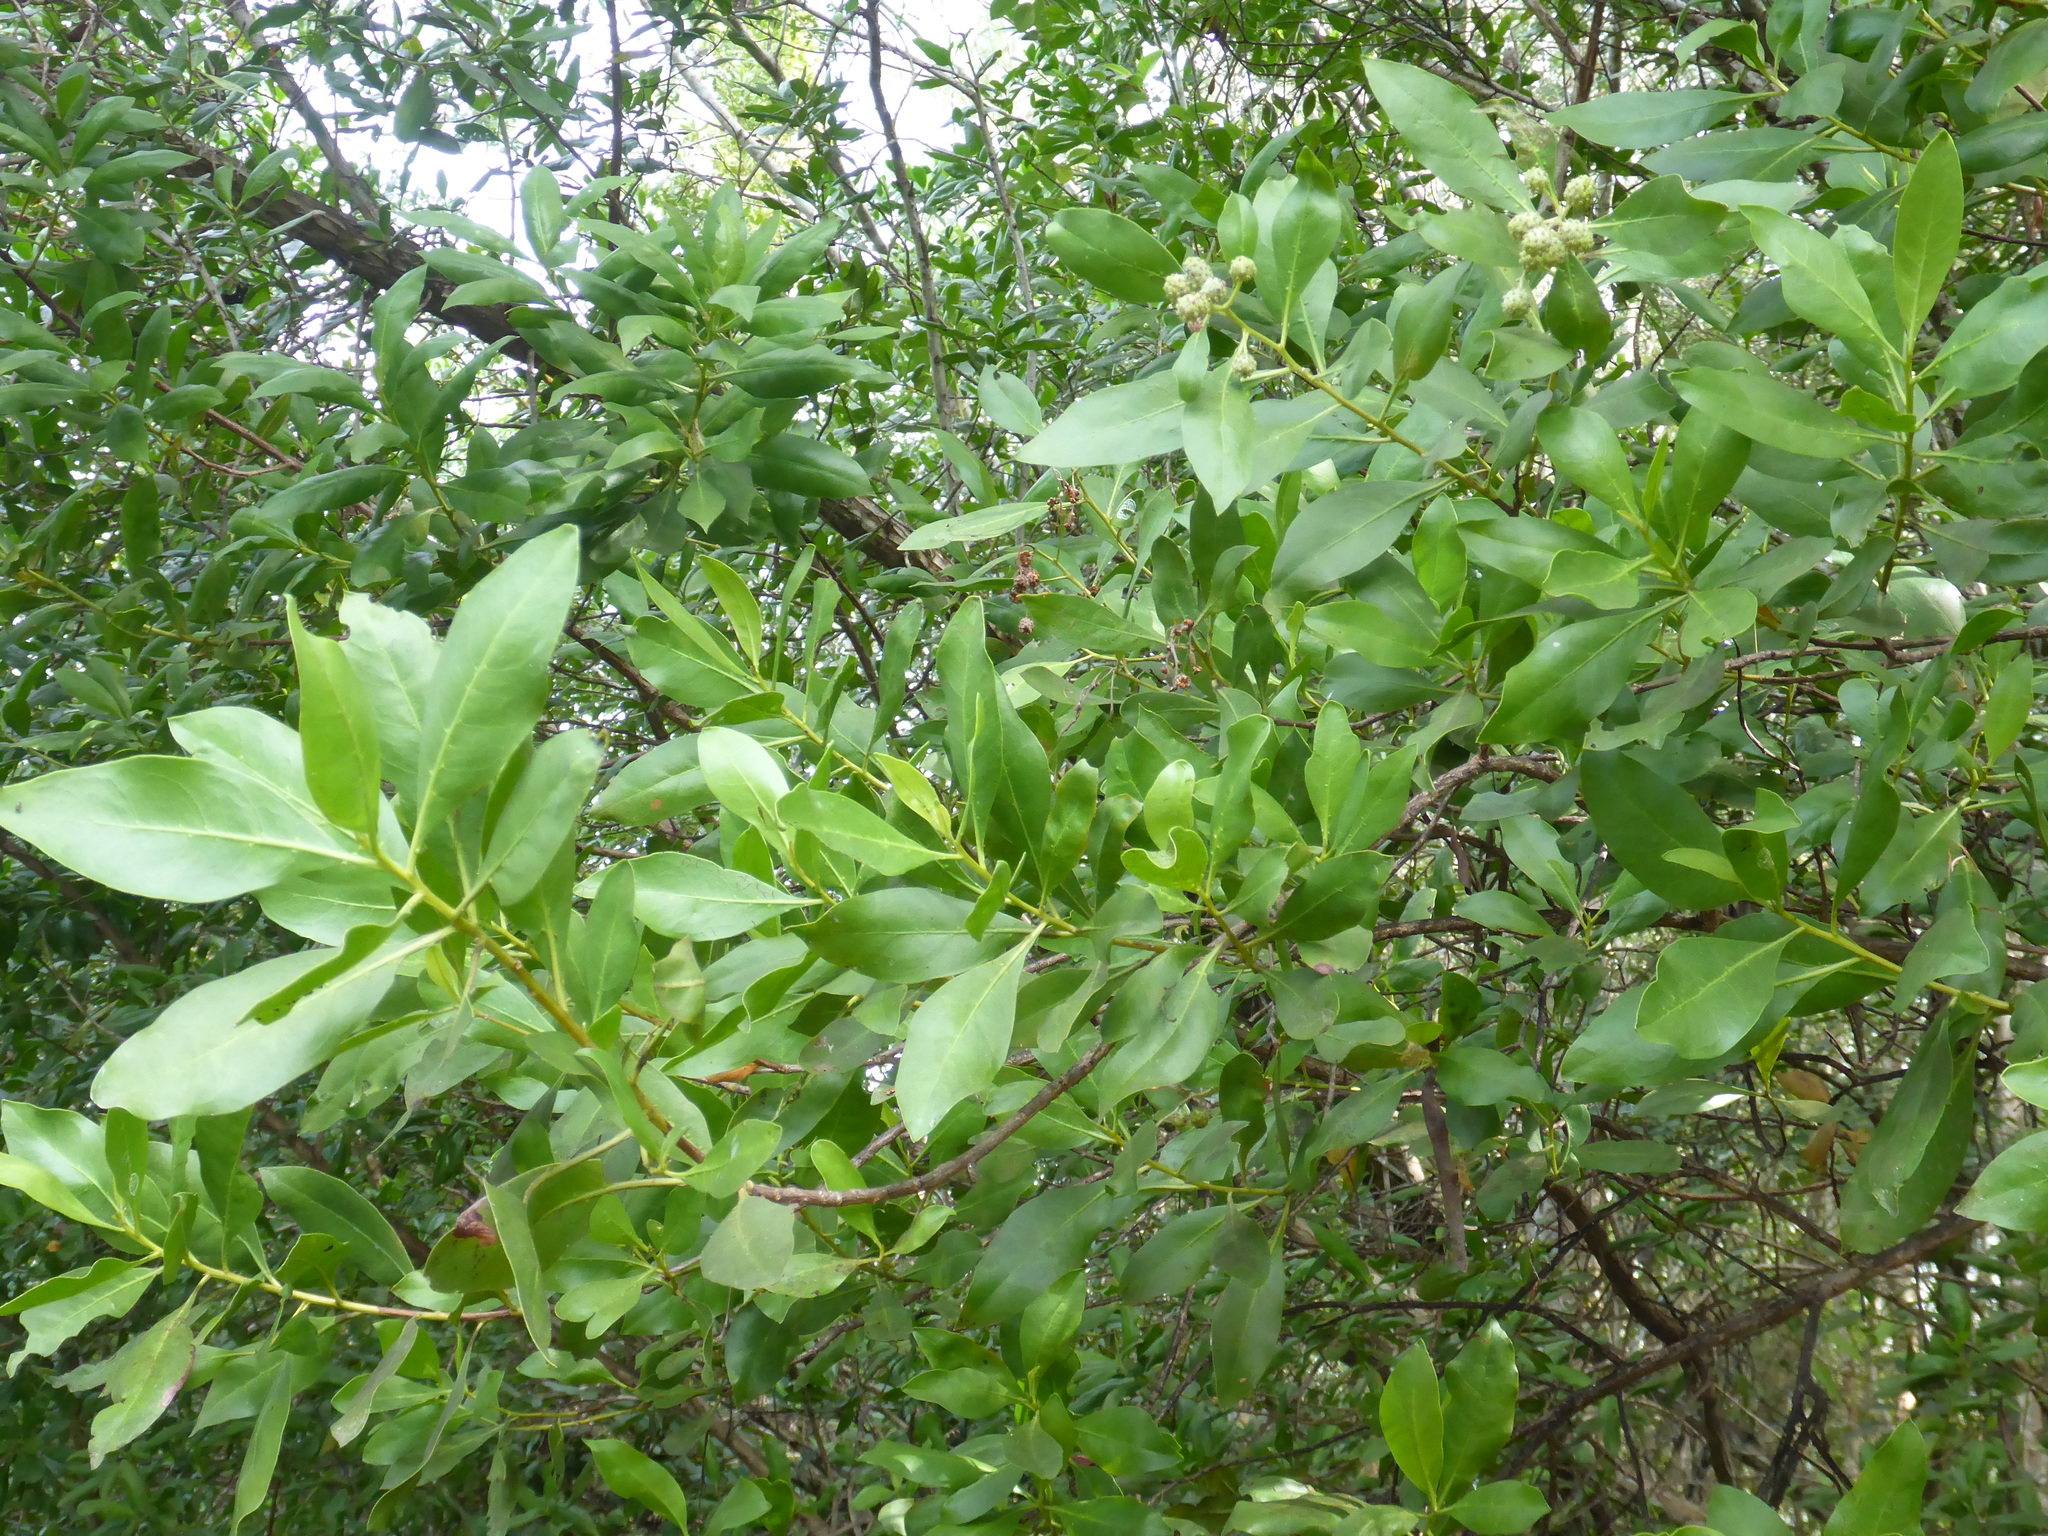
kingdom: Plantae
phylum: Tracheophyta
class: Magnoliopsida
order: Myrtales
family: Combretaceae
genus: Conocarpus
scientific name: Conocarpus erectus
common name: Button mangrove
